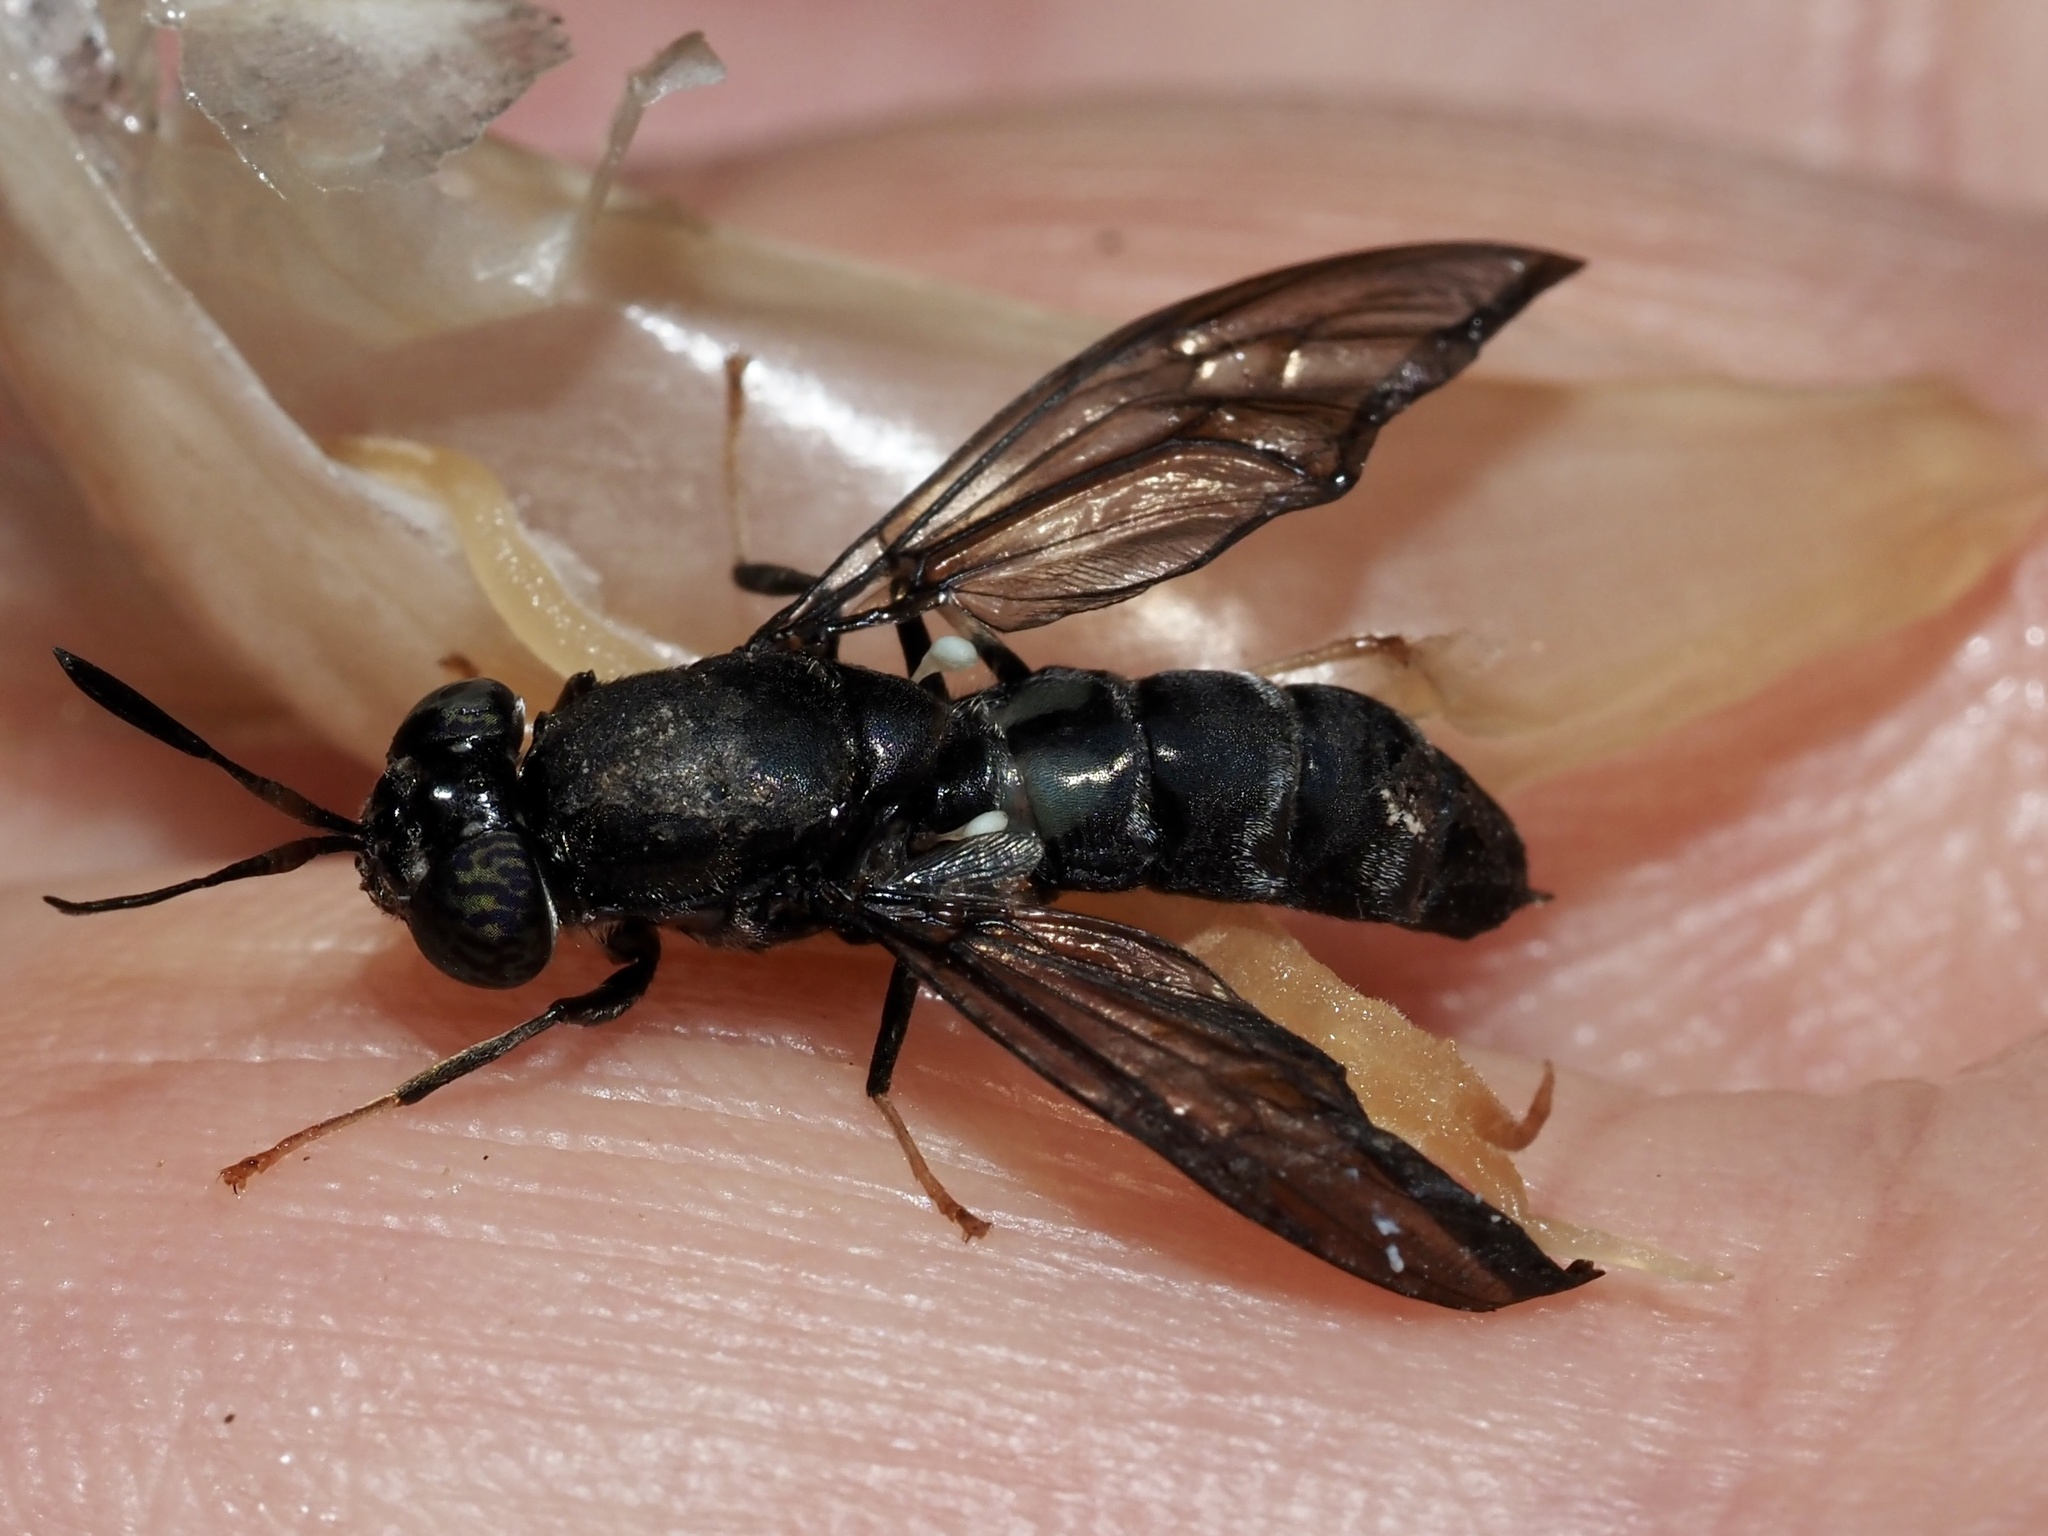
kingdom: Animalia
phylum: Arthropoda
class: Insecta
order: Diptera
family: Stratiomyidae
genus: Hermetia
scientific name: Hermetia illucens
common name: Black soldier fly
